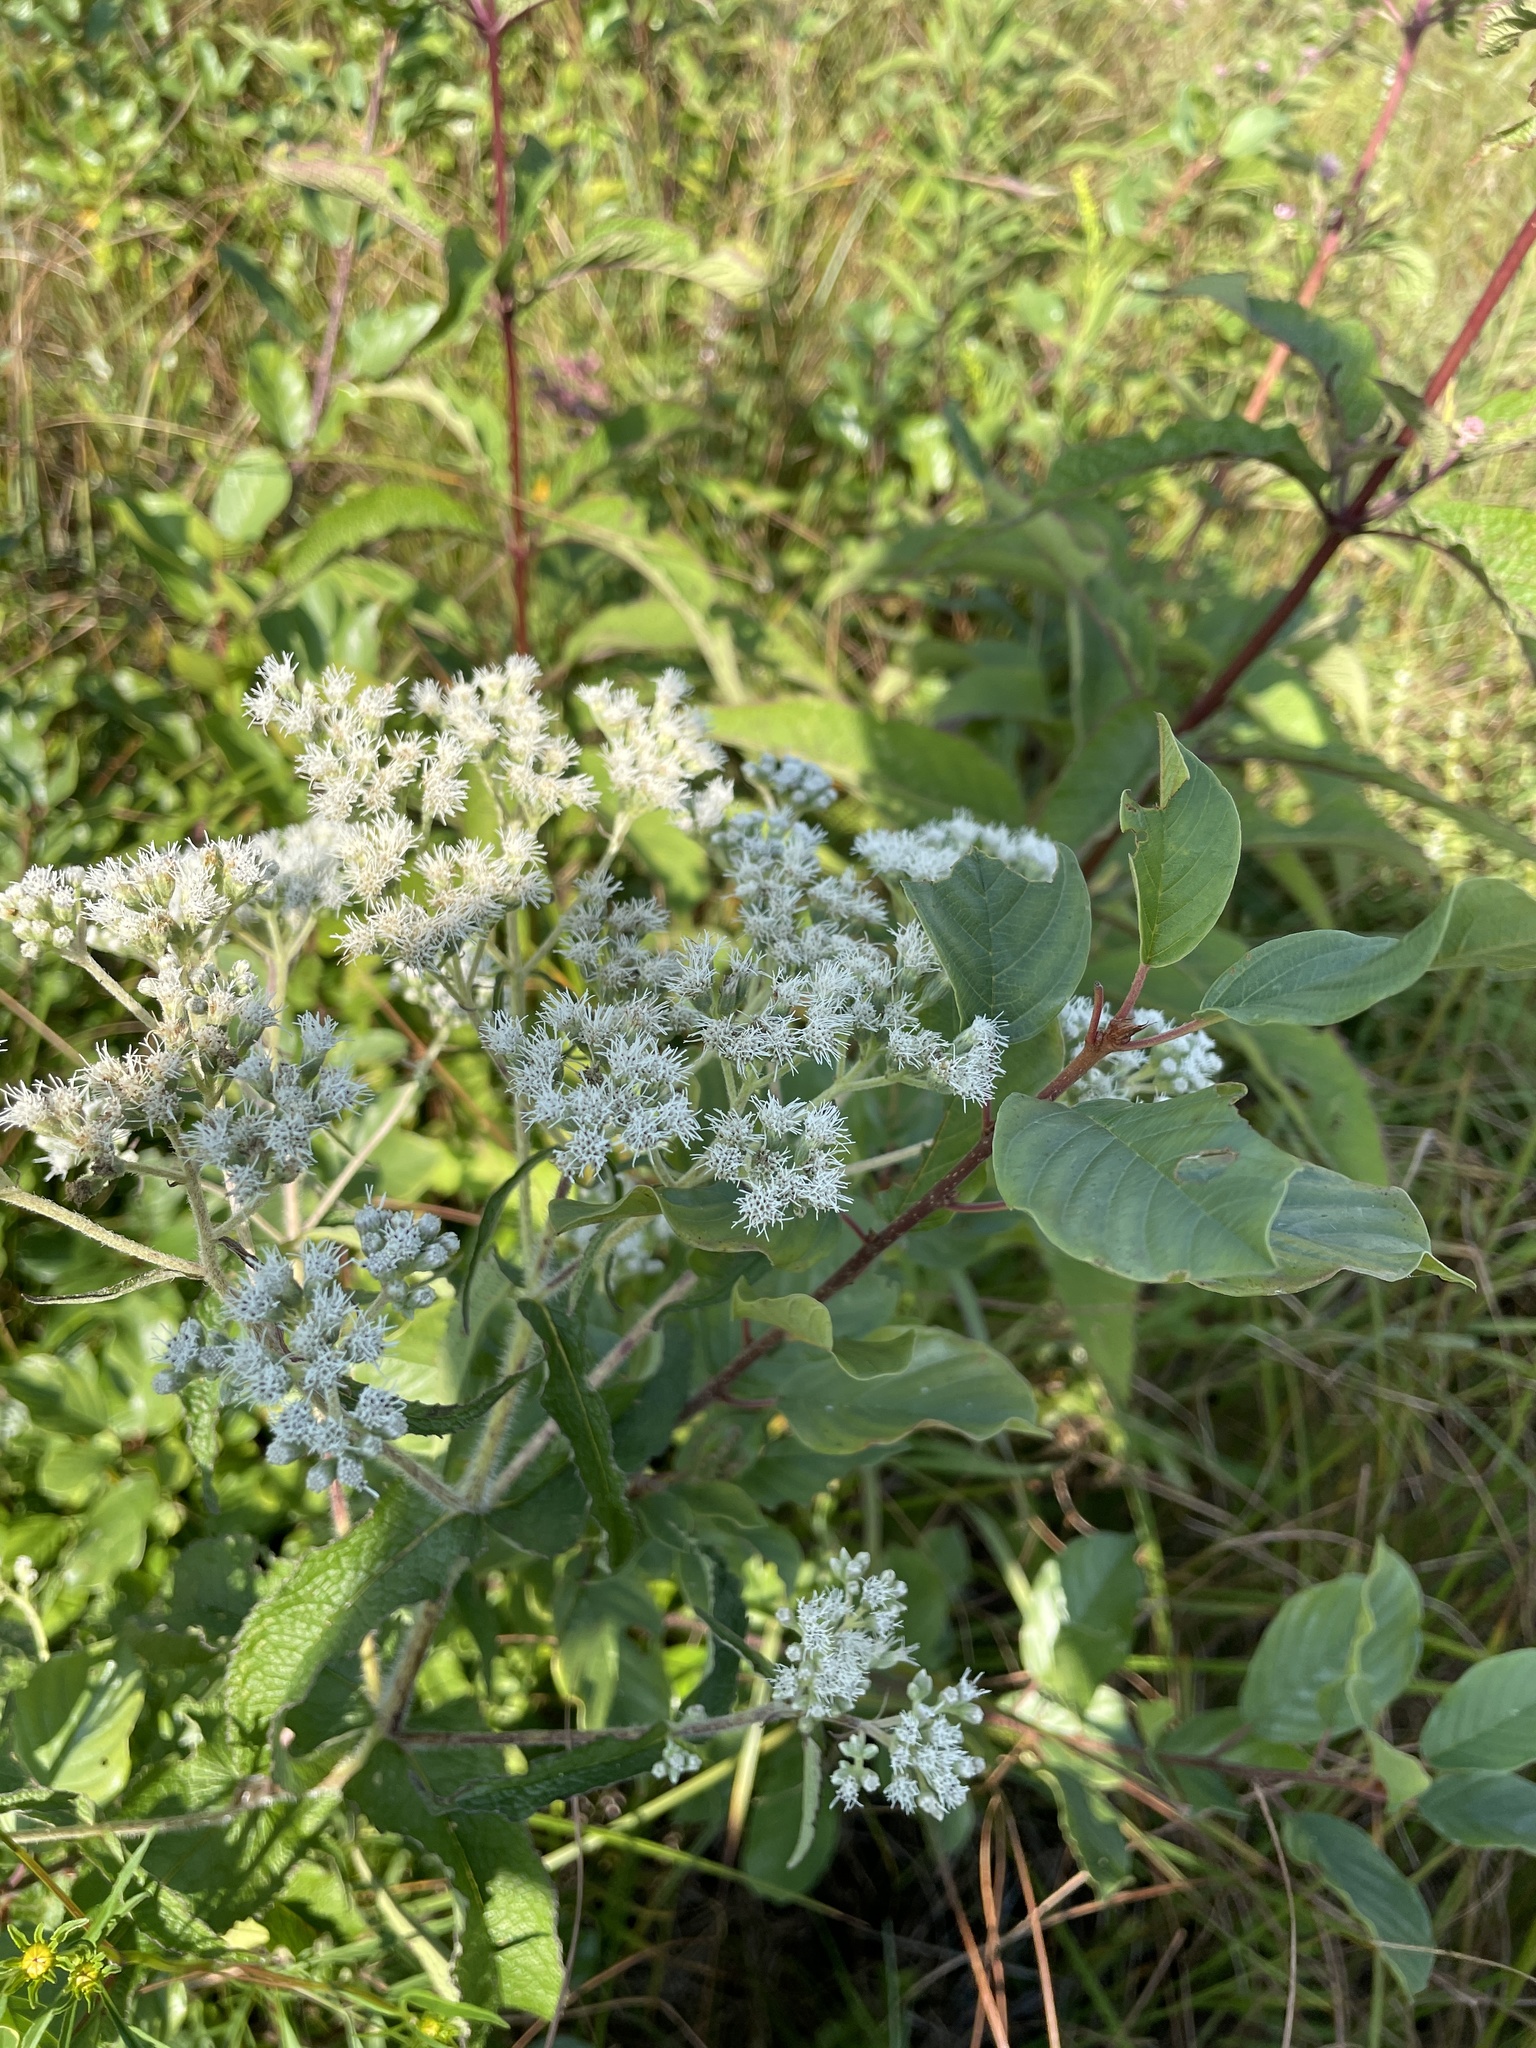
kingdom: Plantae
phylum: Tracheophyta
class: Magnoliopsida
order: Asterales
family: Asteraceae
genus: Eupatorium
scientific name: Eupatorium perfoliatum
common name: Boneset
